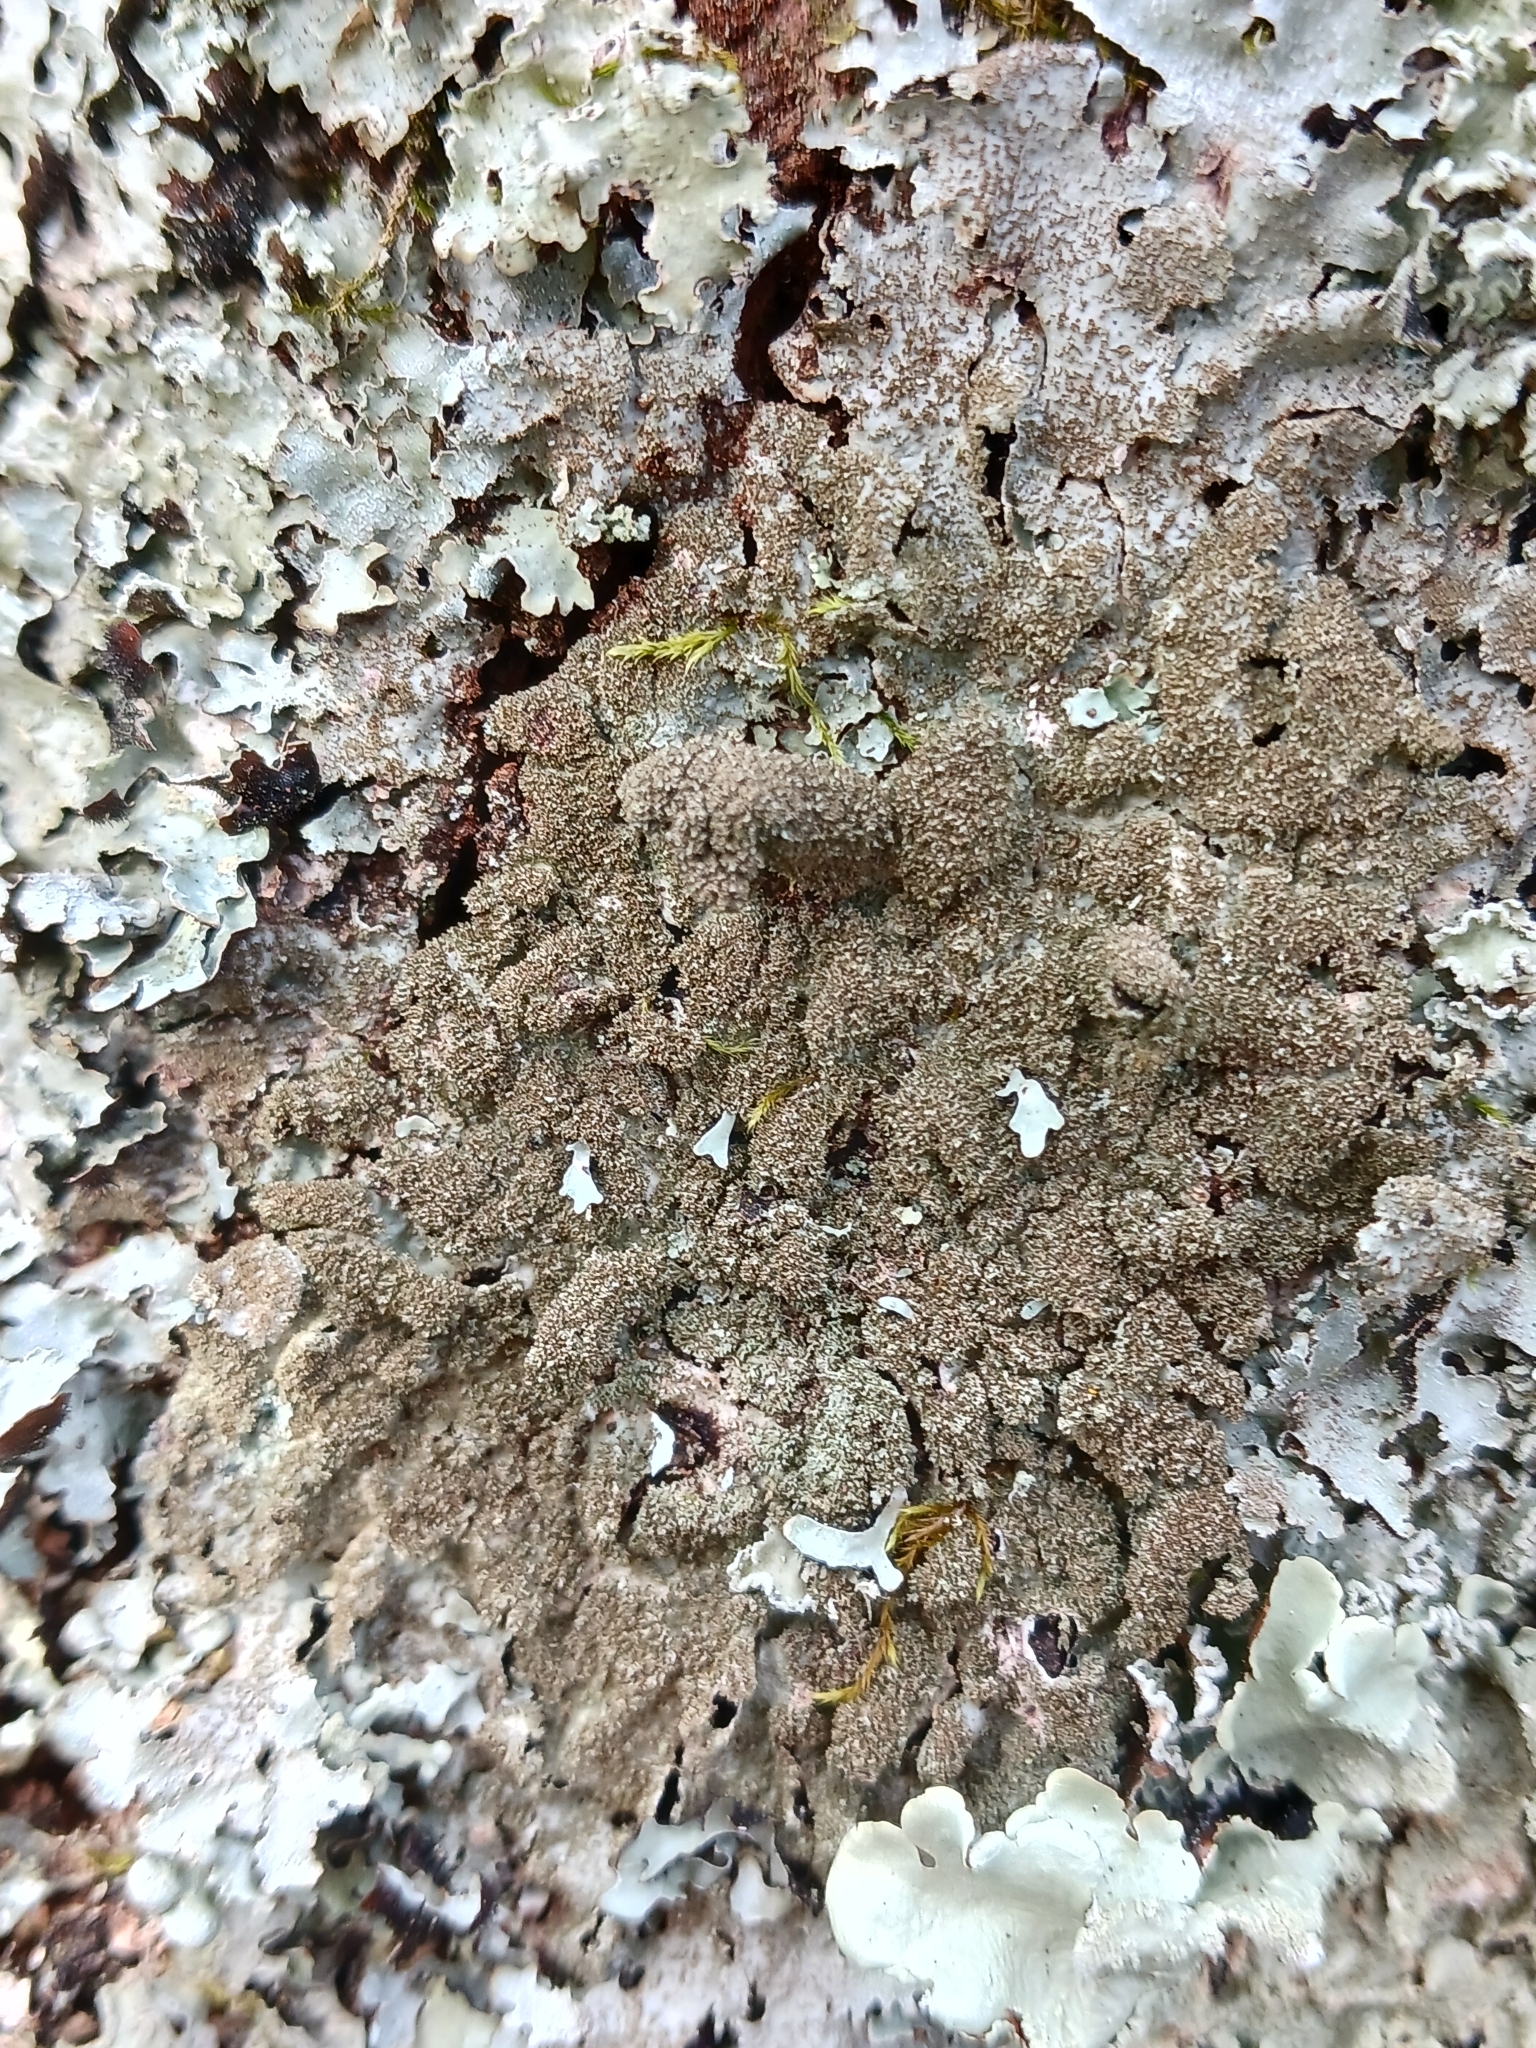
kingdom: Fungi
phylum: Ascomycota
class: Lecanoromycetes
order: Lecanorales
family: Parmeliaceae
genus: Parmelia
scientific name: Parmelia
